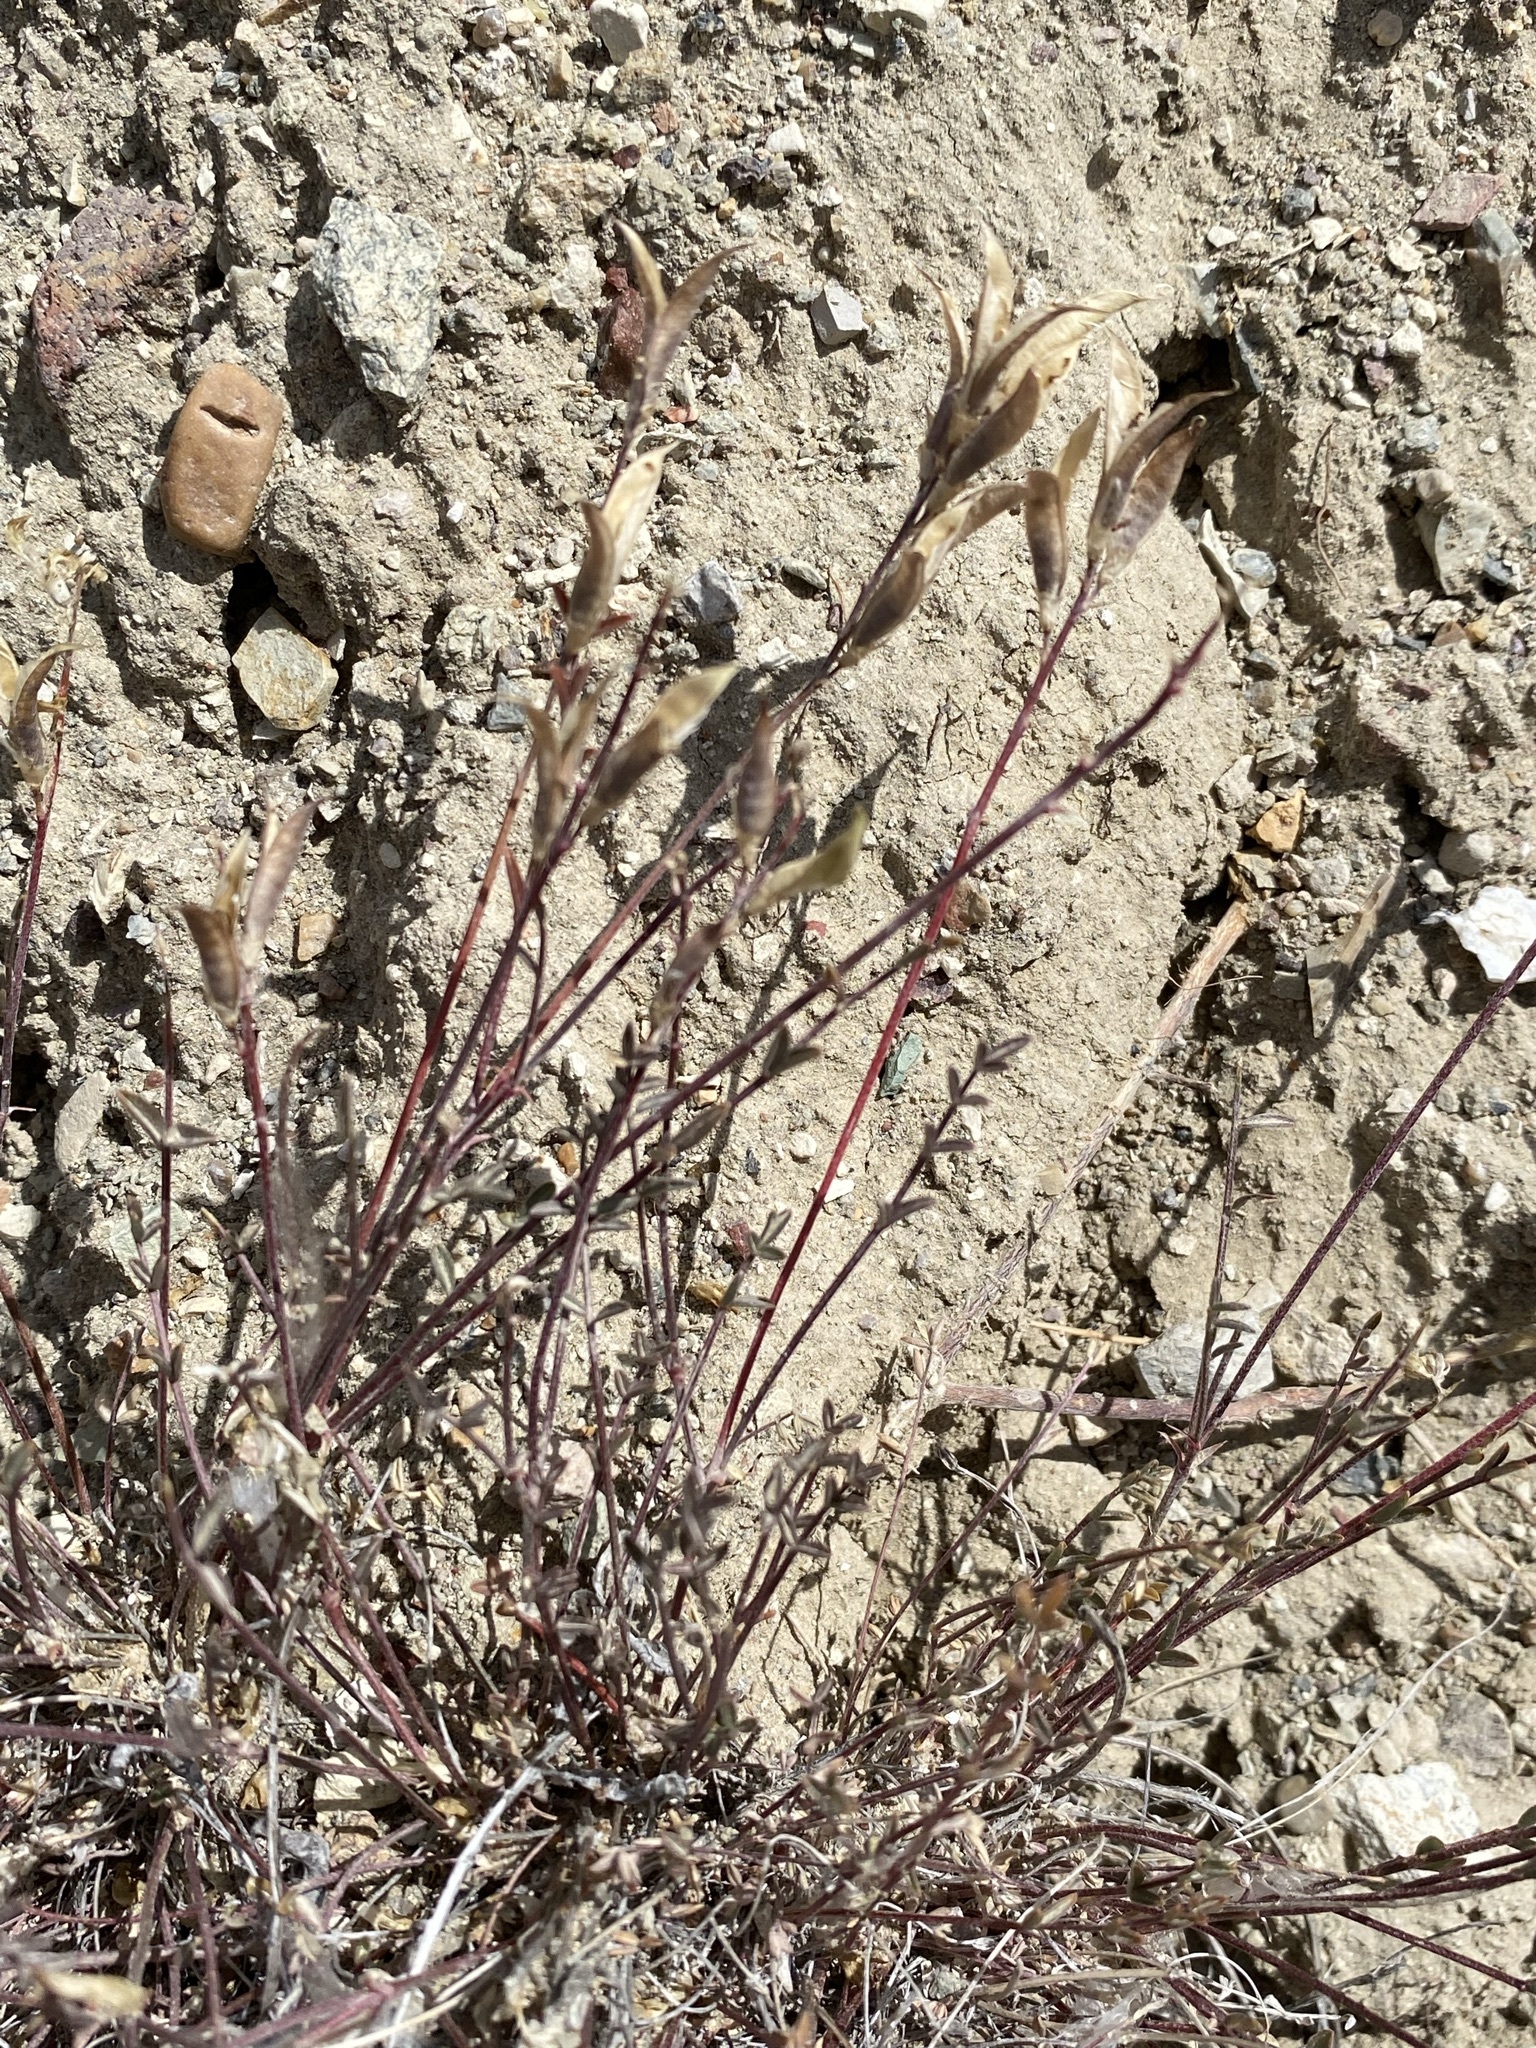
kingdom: Plantae
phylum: Tracheophyta
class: Magnoliopsida
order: Fabales
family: Fabaceae
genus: Astragalus
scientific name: Astragalus obscurus
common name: Arcane milk-vetch
